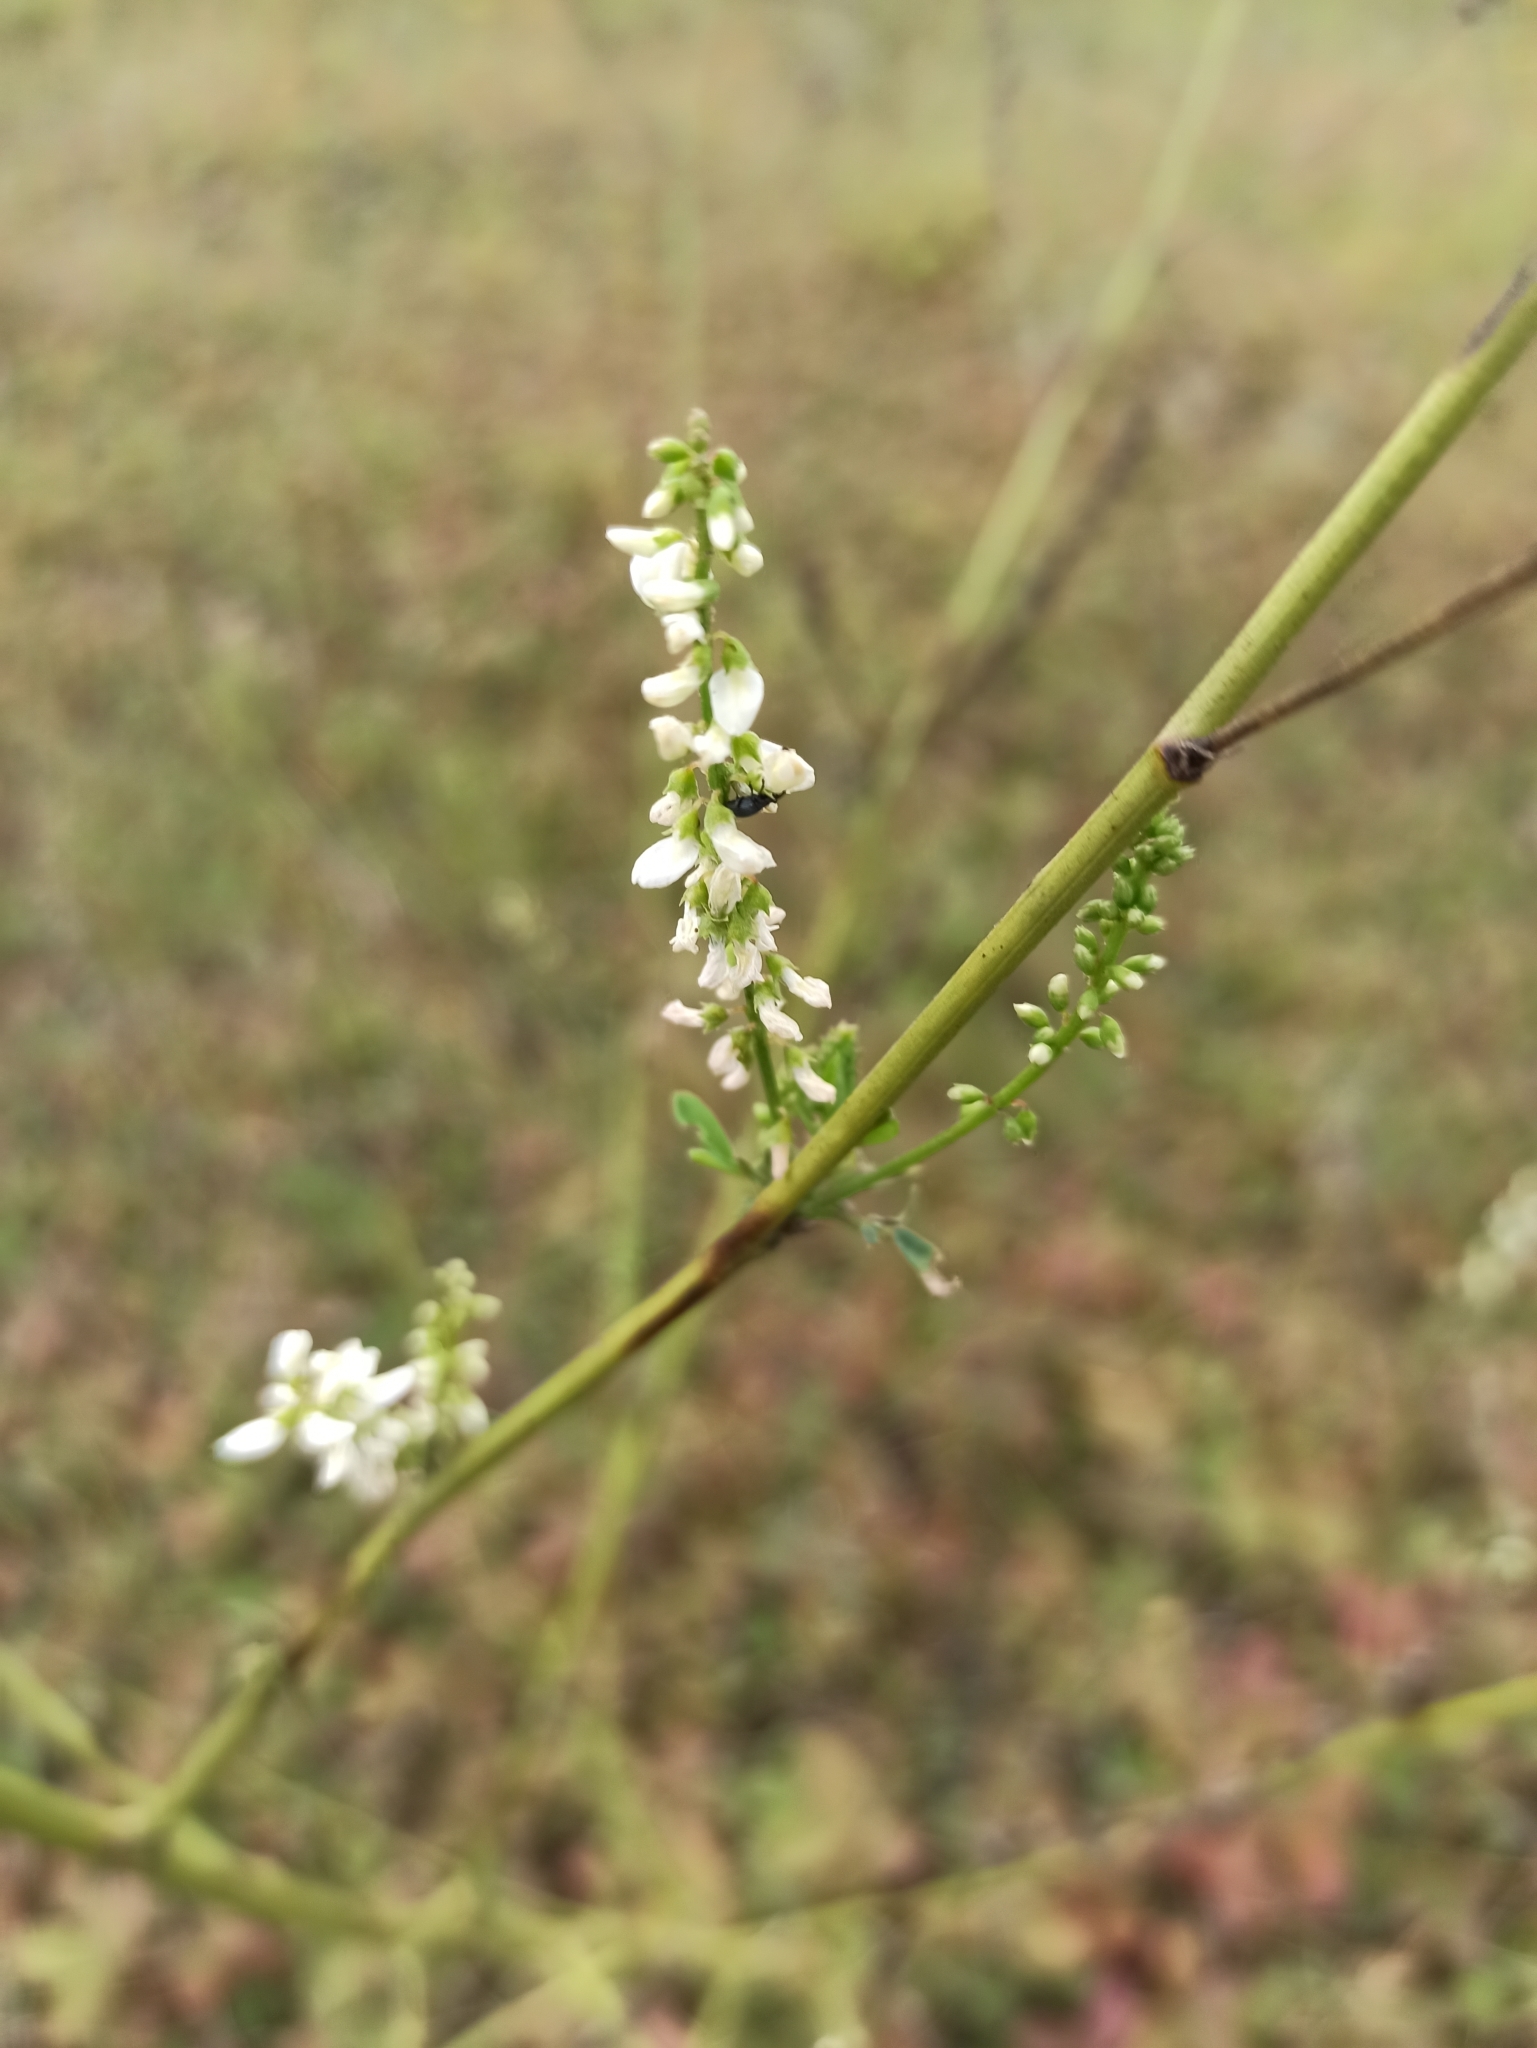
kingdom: Plantae
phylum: Tracheophyta
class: Magnoliopsida
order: Fabales
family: Fabaceae
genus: Melilotus
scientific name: Melilotus albus
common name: White melilot
